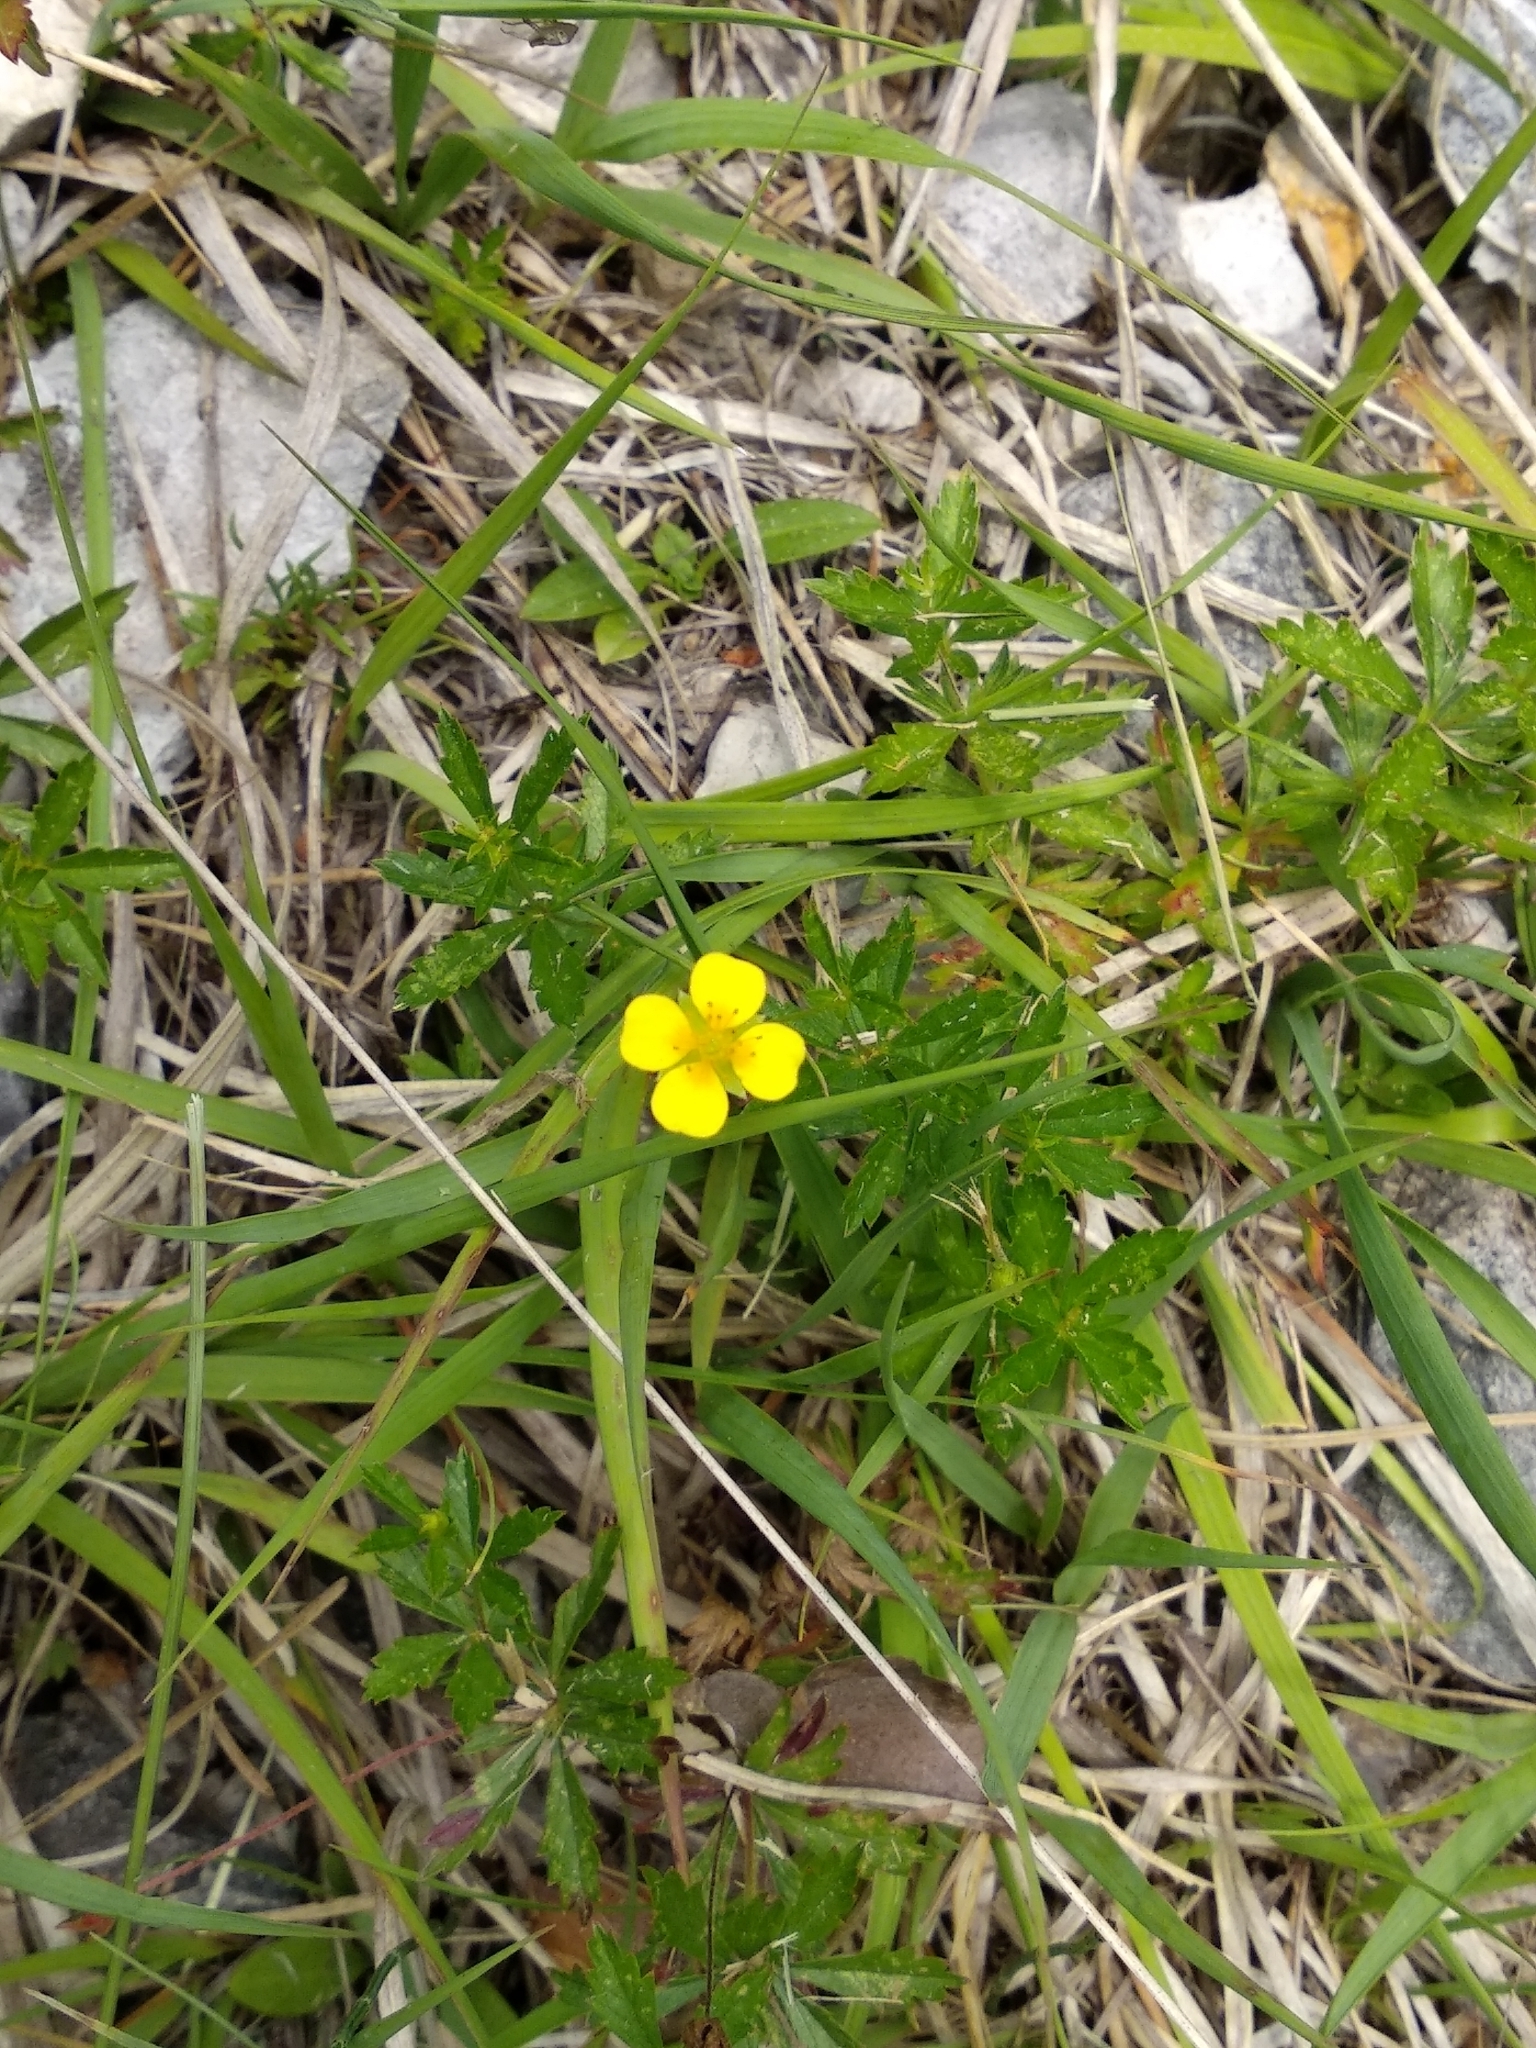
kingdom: Plantae
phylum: Tracheophyta
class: Magnoliopsida
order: Rosales
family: Rosaceae
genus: Potentilla
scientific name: Potentilla erecta
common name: Tormentil
